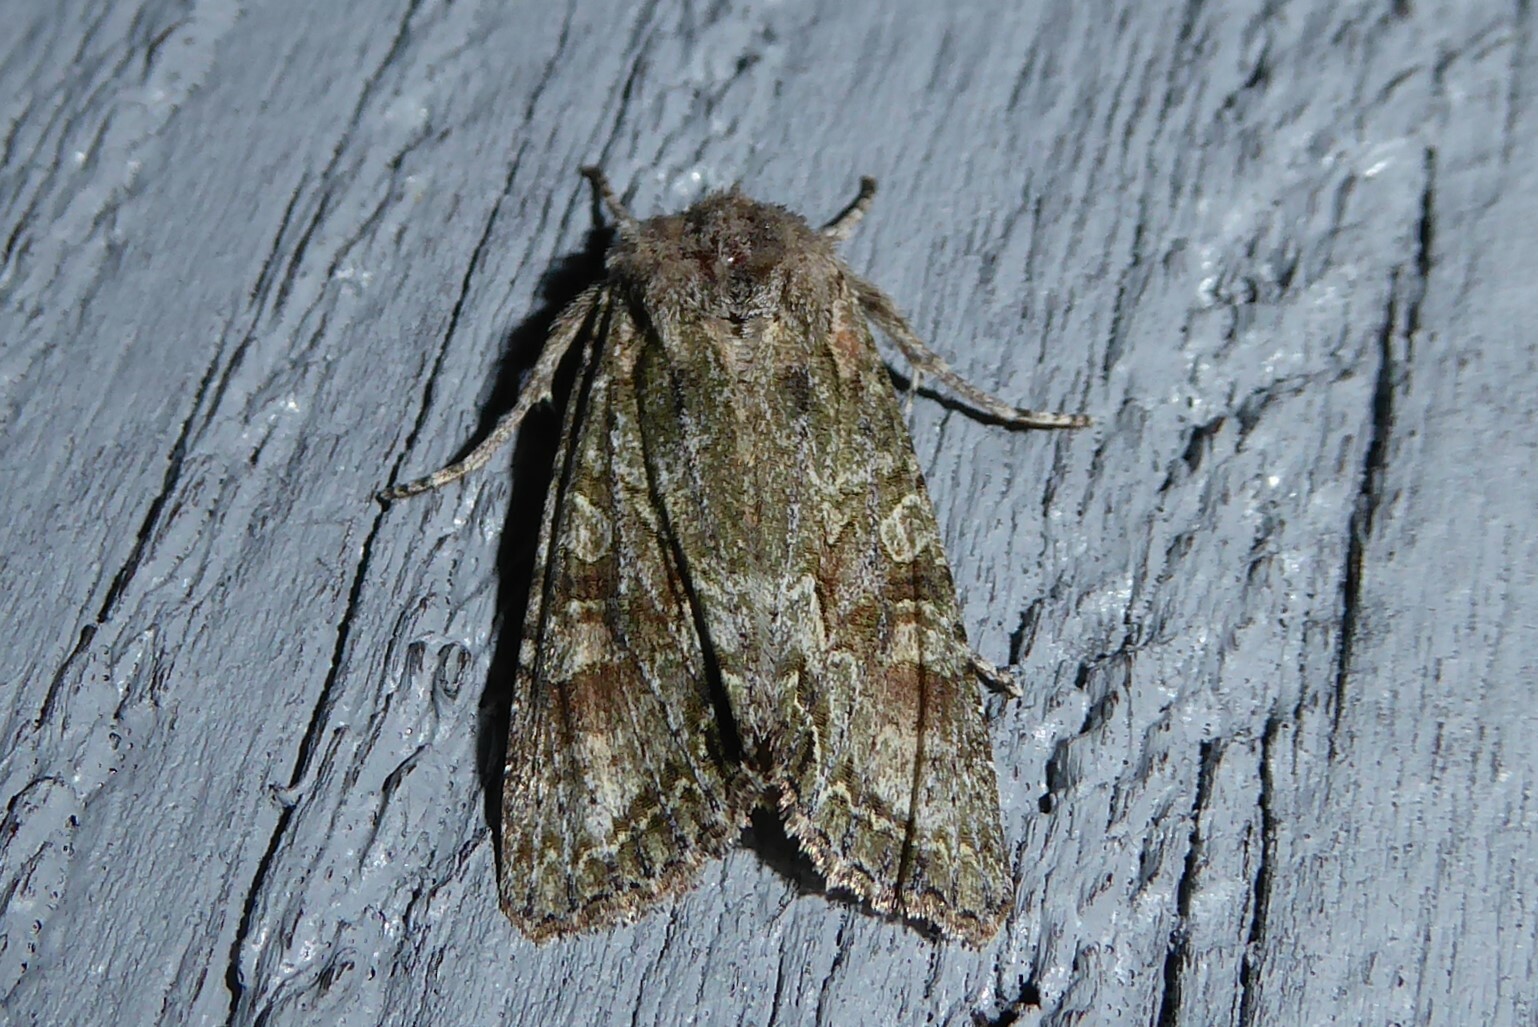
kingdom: Animalia
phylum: Arthropoda
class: Insecta
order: Lepidoptera
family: Noctuidae
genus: Ichneutica
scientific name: Ichneutica mutans
